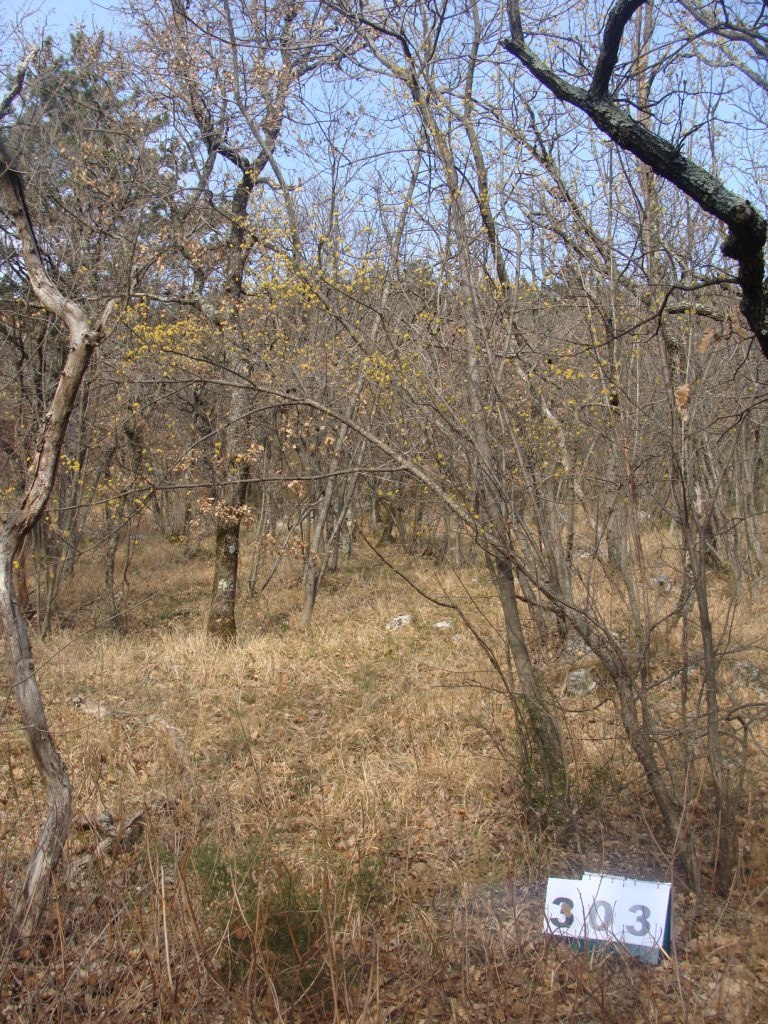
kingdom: Plantae
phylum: Tracheophyta
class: Magnoliopsida
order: Cornales
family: Cornaceae
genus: Cornus
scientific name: Cornus mas
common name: Cornelian-cherry
